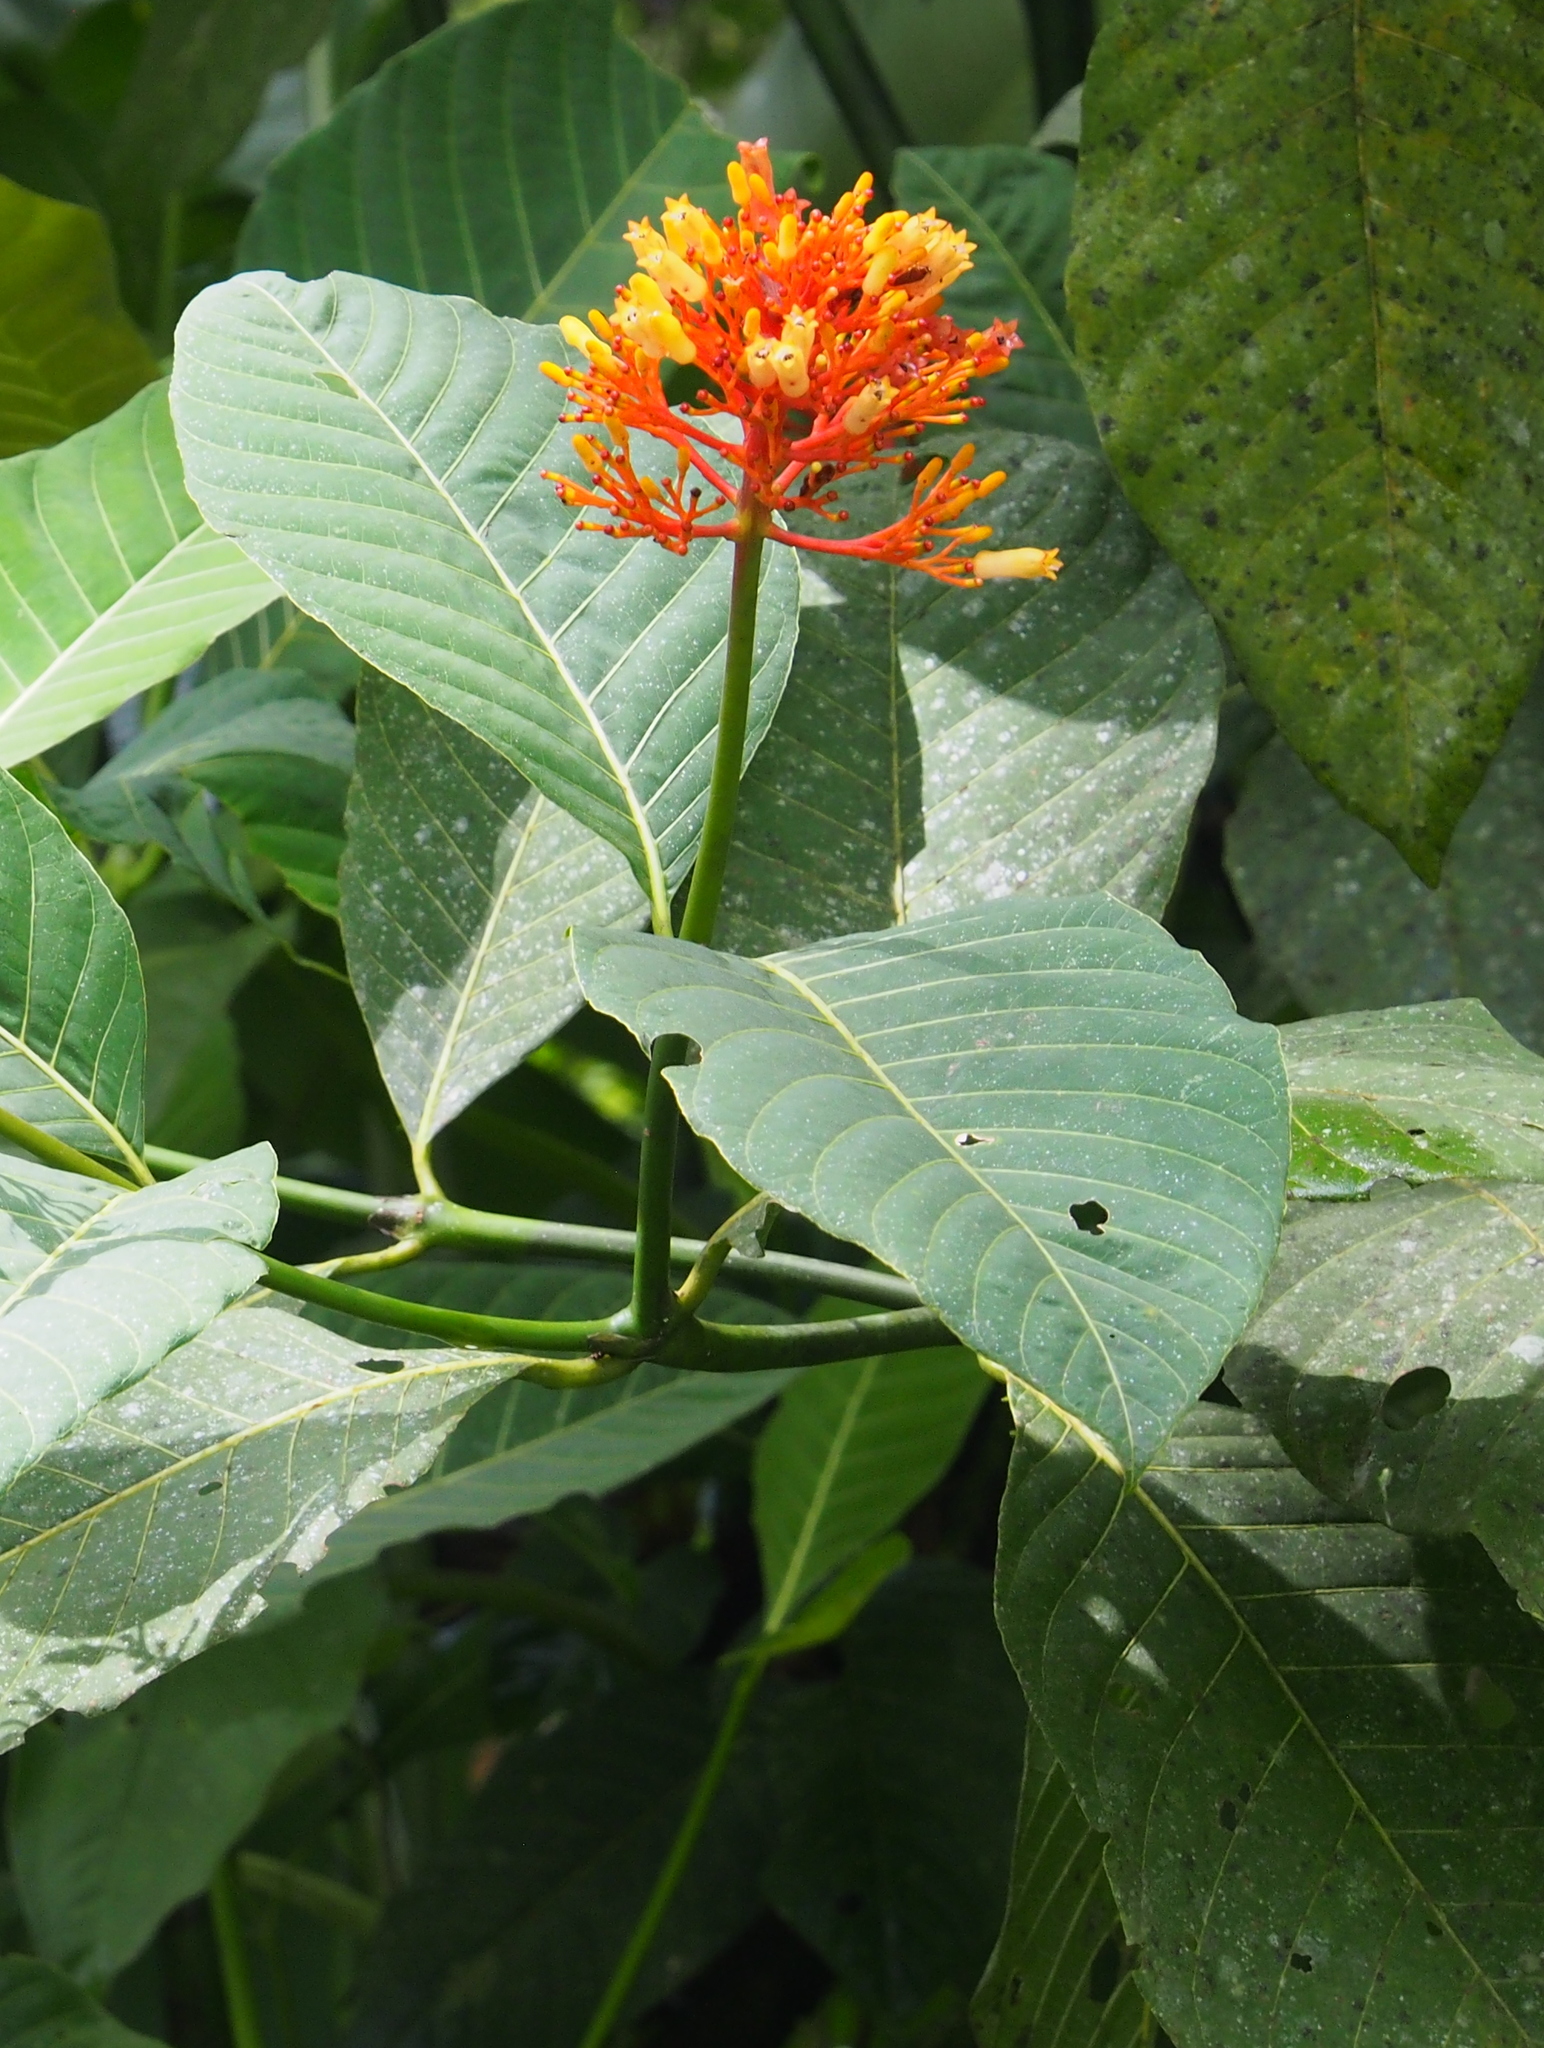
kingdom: Plantae
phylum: Tracheophyta
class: Magnoliopsida
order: Gentianales
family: Rubiaceae
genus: Palicourea
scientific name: Palicourea guianensis
